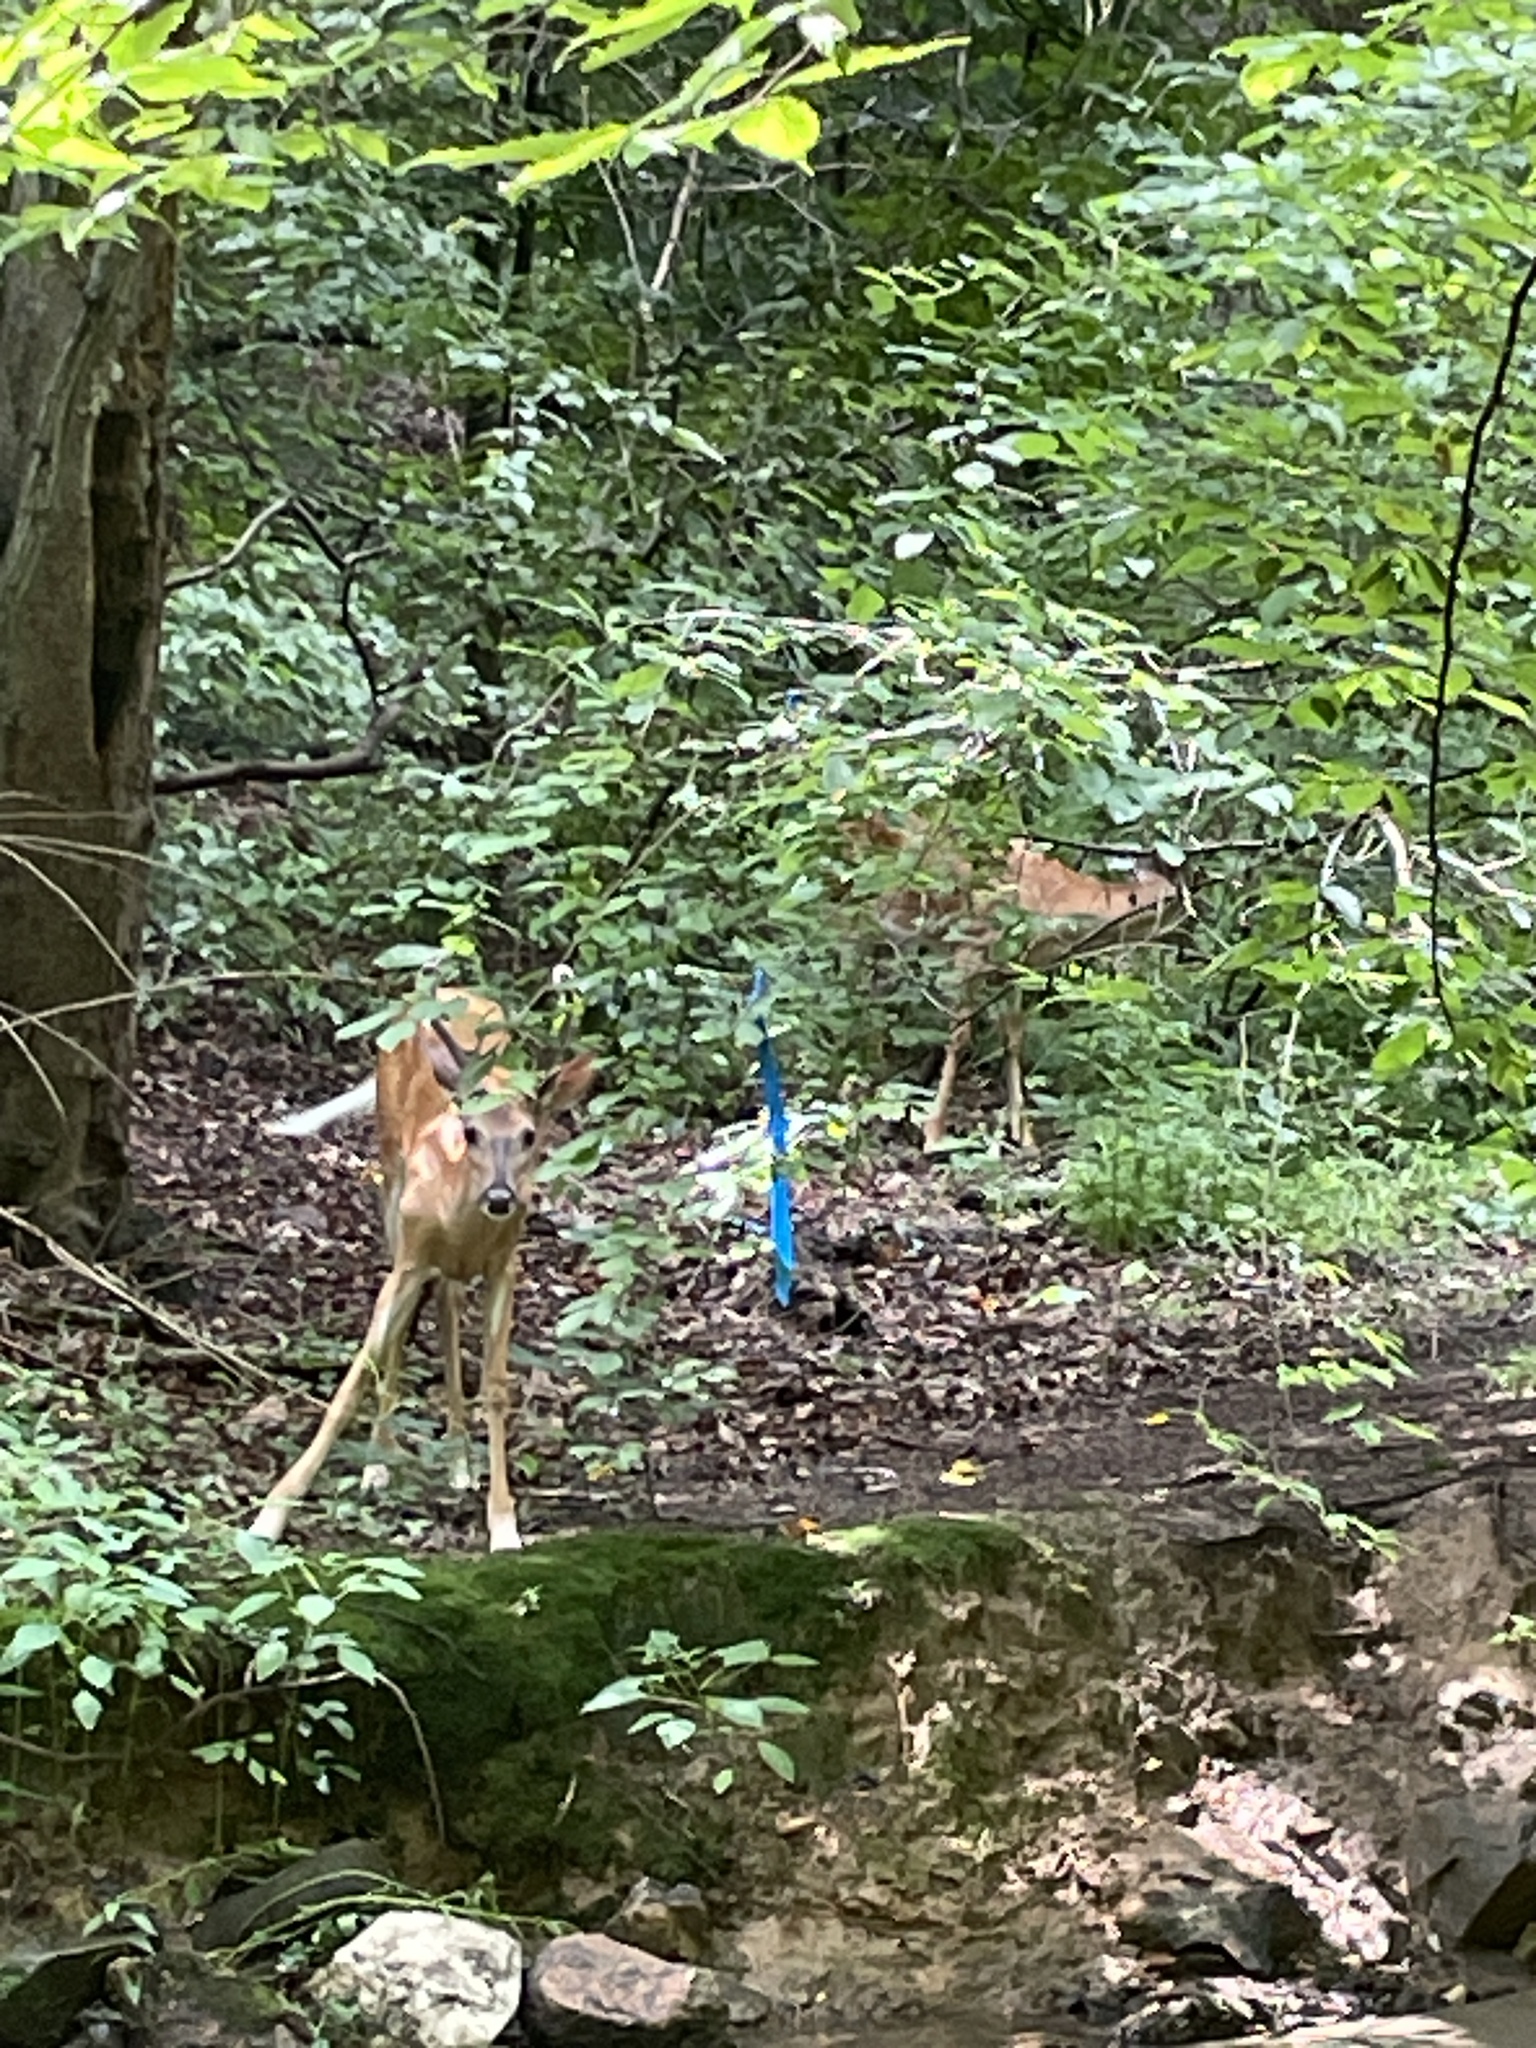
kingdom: Animalia
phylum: Chordata
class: Mammalia
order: Artiodactyla
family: Cervidae
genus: Odocoileus
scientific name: Odocoileus virginianus
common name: White-tailed deer
